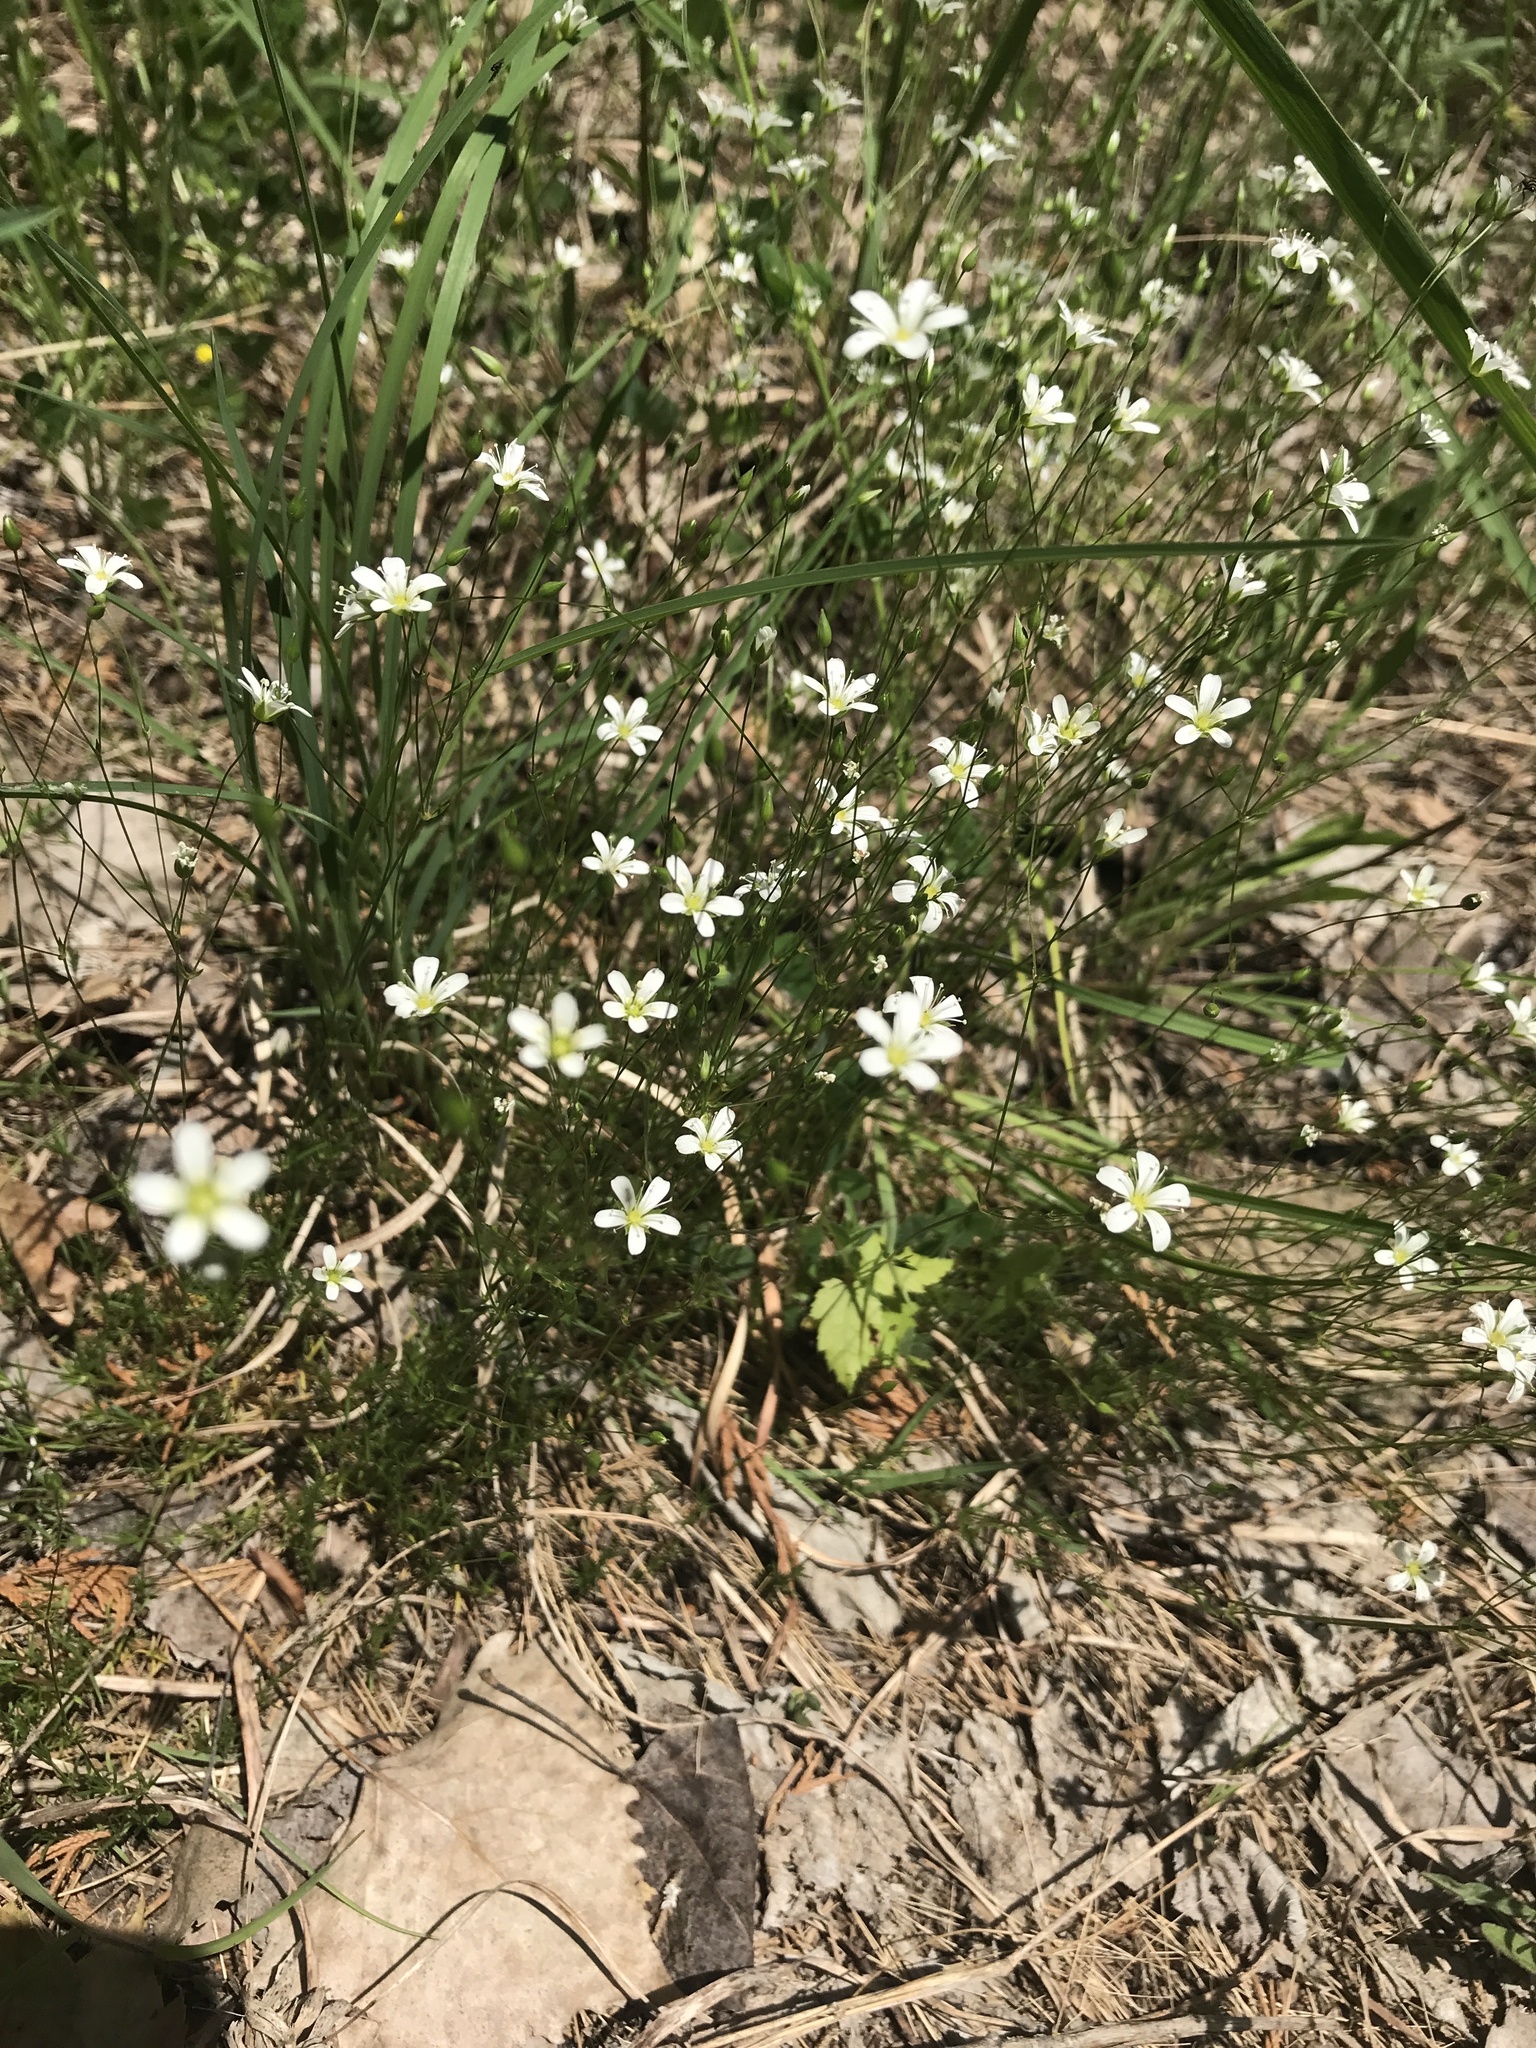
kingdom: Plantae
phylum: Tracheophyta
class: Magnoliopsida
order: Caryophyllales
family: Caryophyllaceae
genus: Sabulina
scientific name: Sabulina michauxii
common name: Michaux's stitchwort
